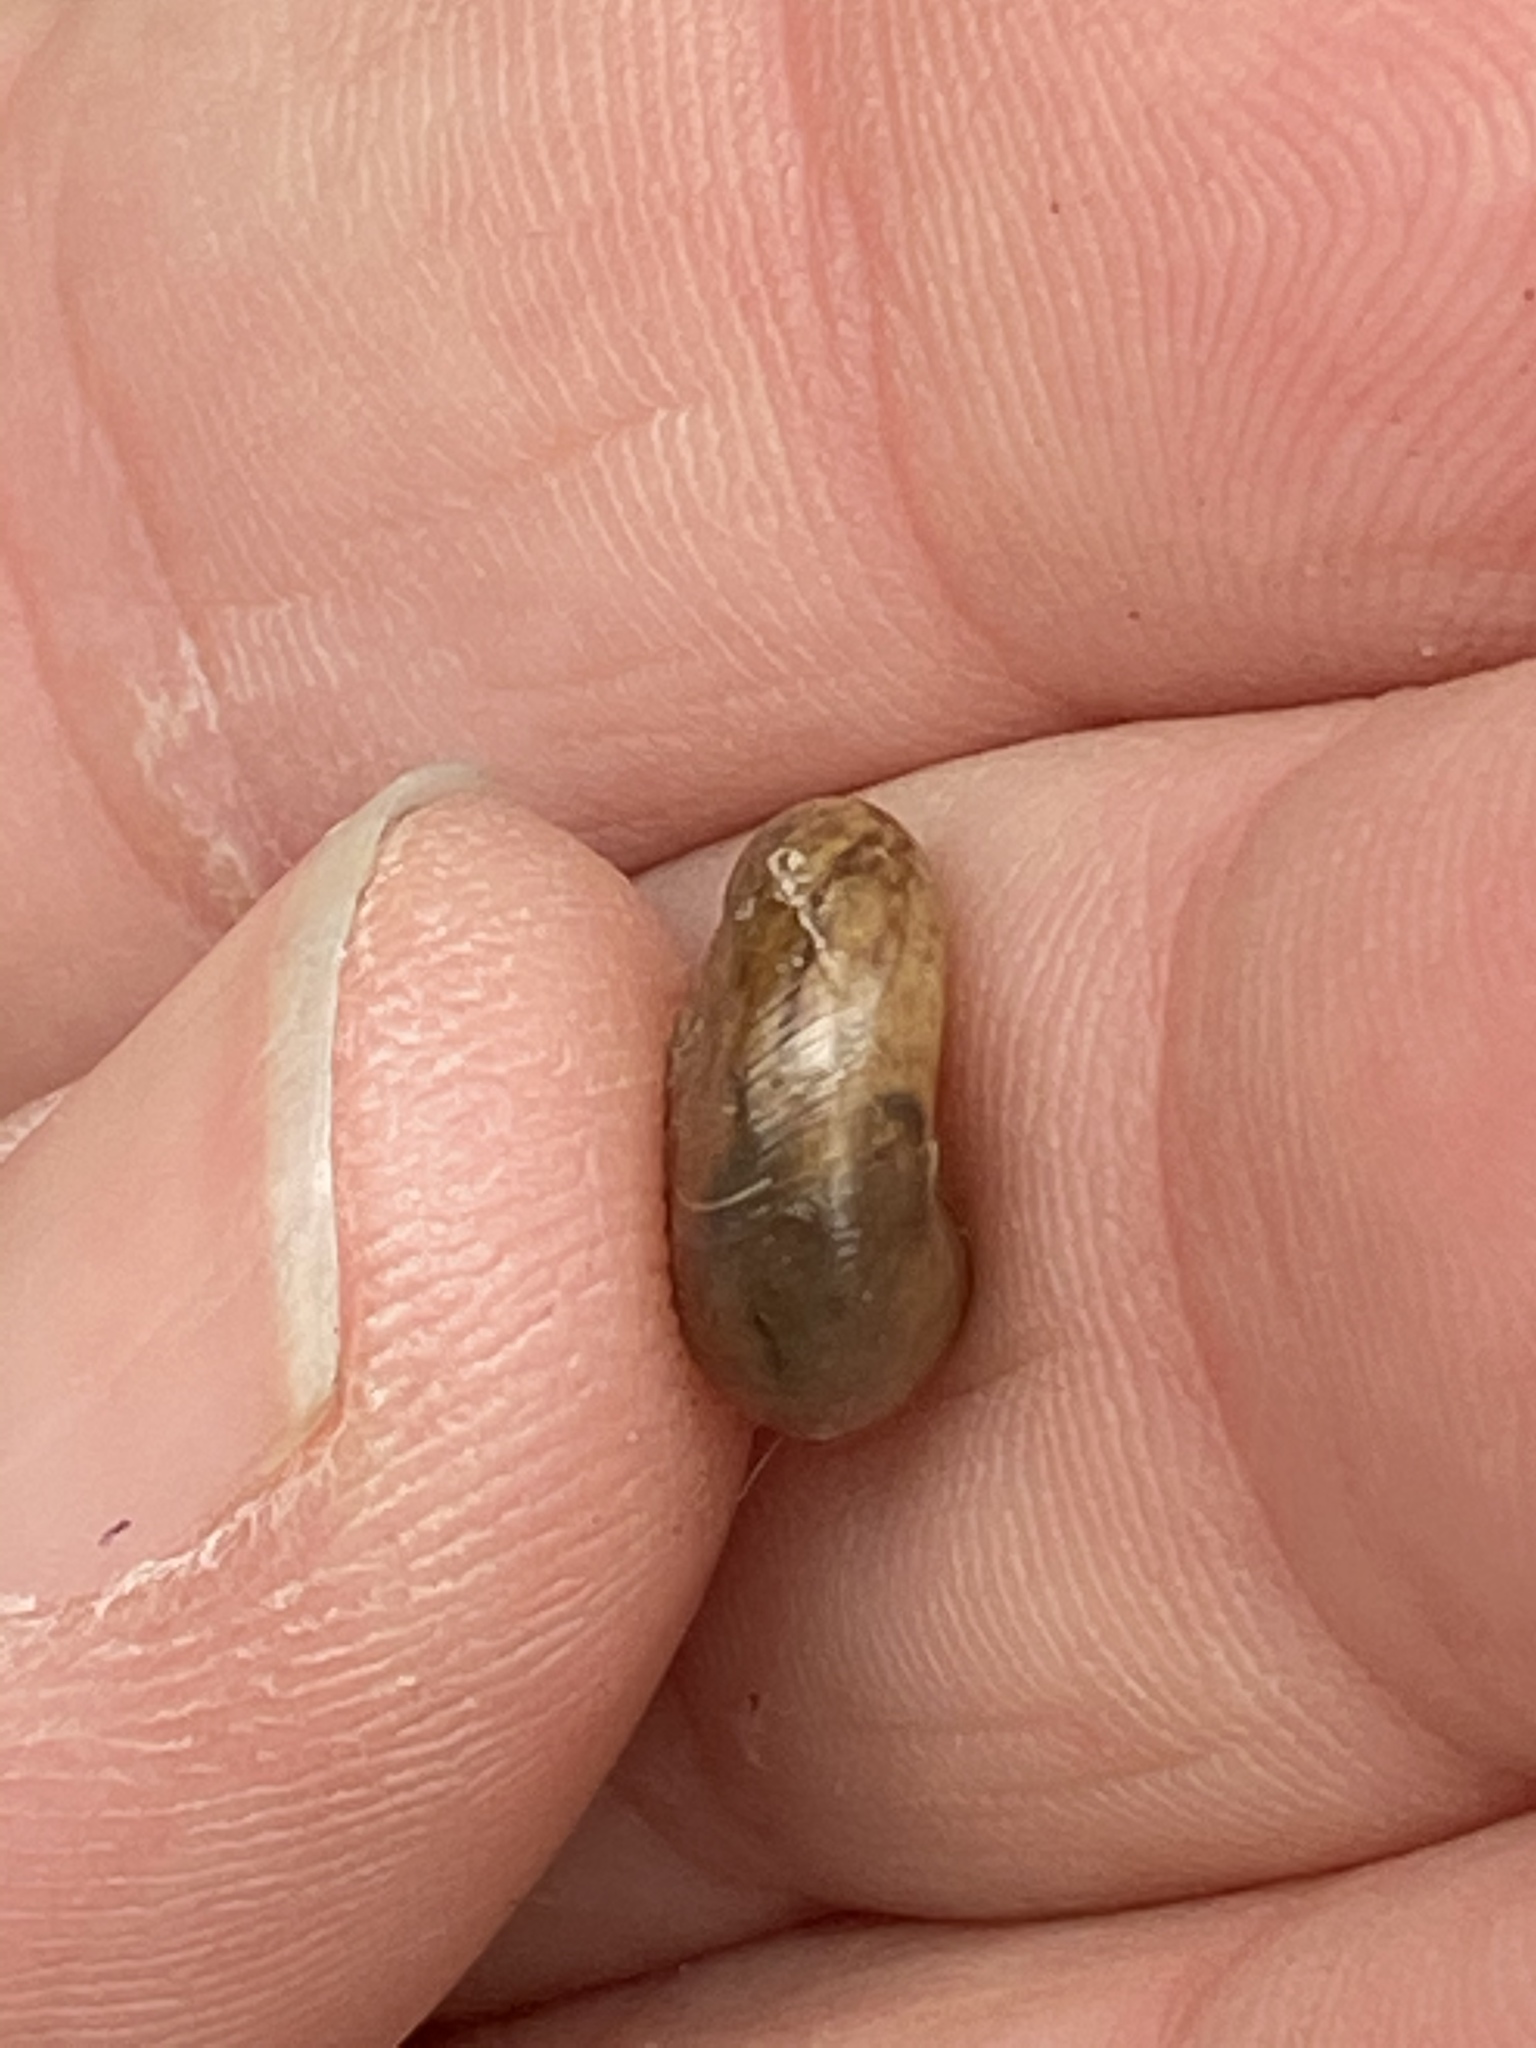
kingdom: Animalia
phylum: Mollusca
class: Gastropoda
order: Stylommatophora
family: Haplotrematidae
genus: Haplotrema
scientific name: Haplotrema minimum
